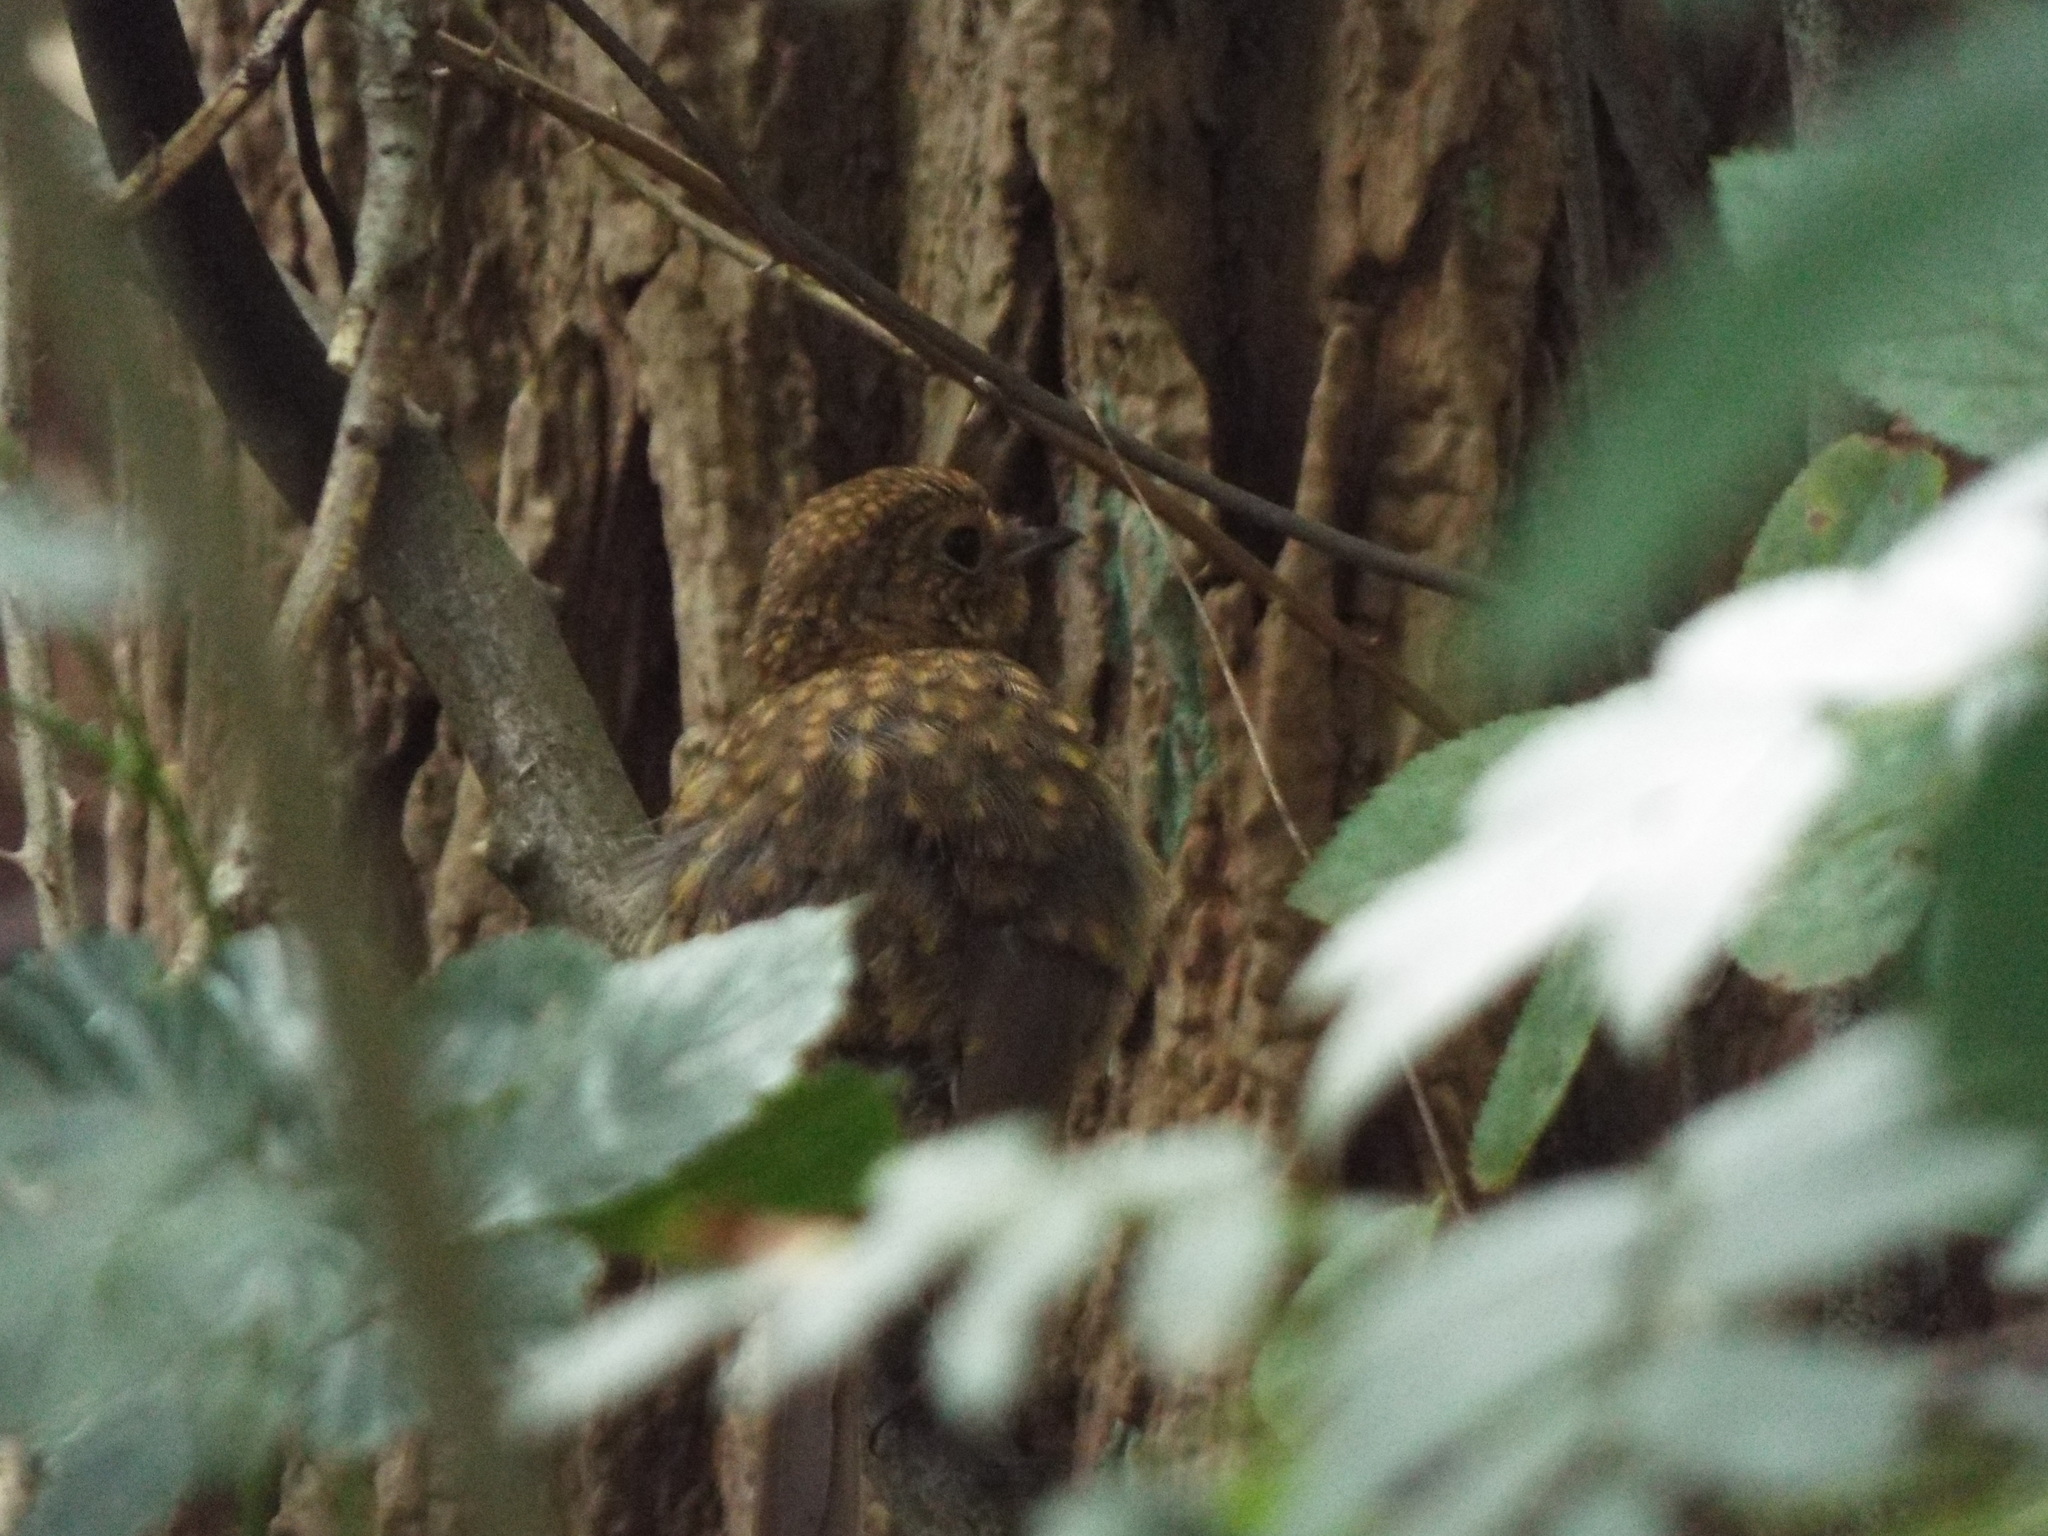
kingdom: Animalia
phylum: Chordata
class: Aves
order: Passeriformes
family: Muscicapidae
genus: Erithacus
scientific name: Erithacus rubecula
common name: European robin
